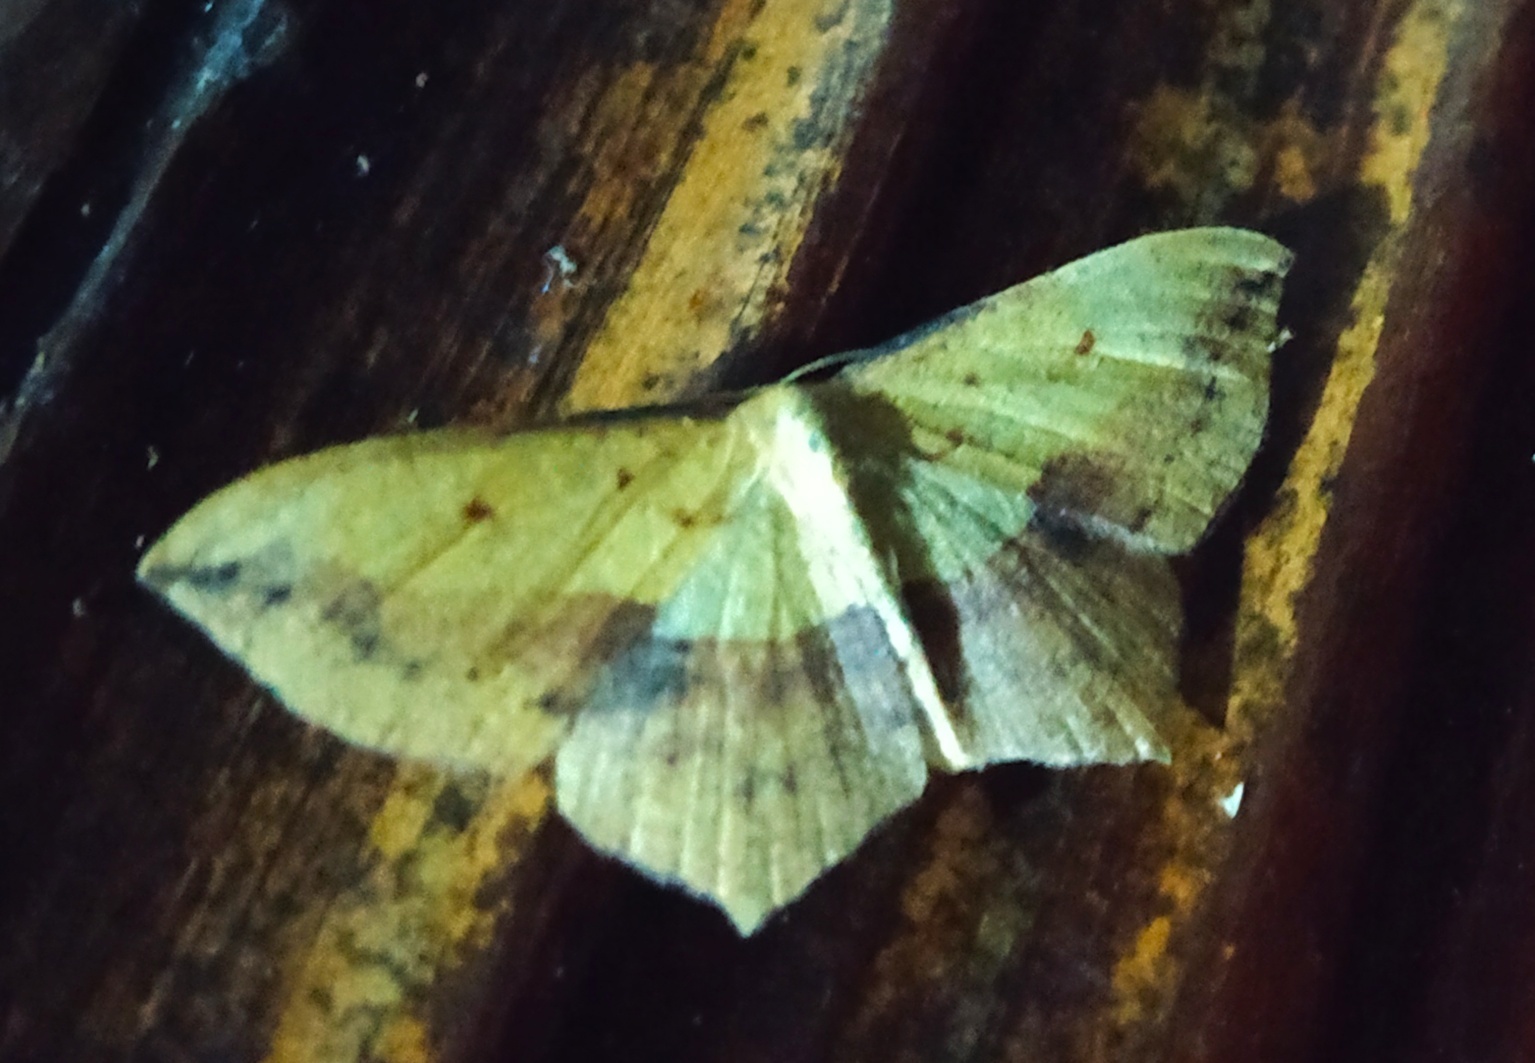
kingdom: Animalia
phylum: Arthropoda
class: Insecta
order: Lepidoptera
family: Geometridae
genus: Timandra
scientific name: Timandra ruptilinea
